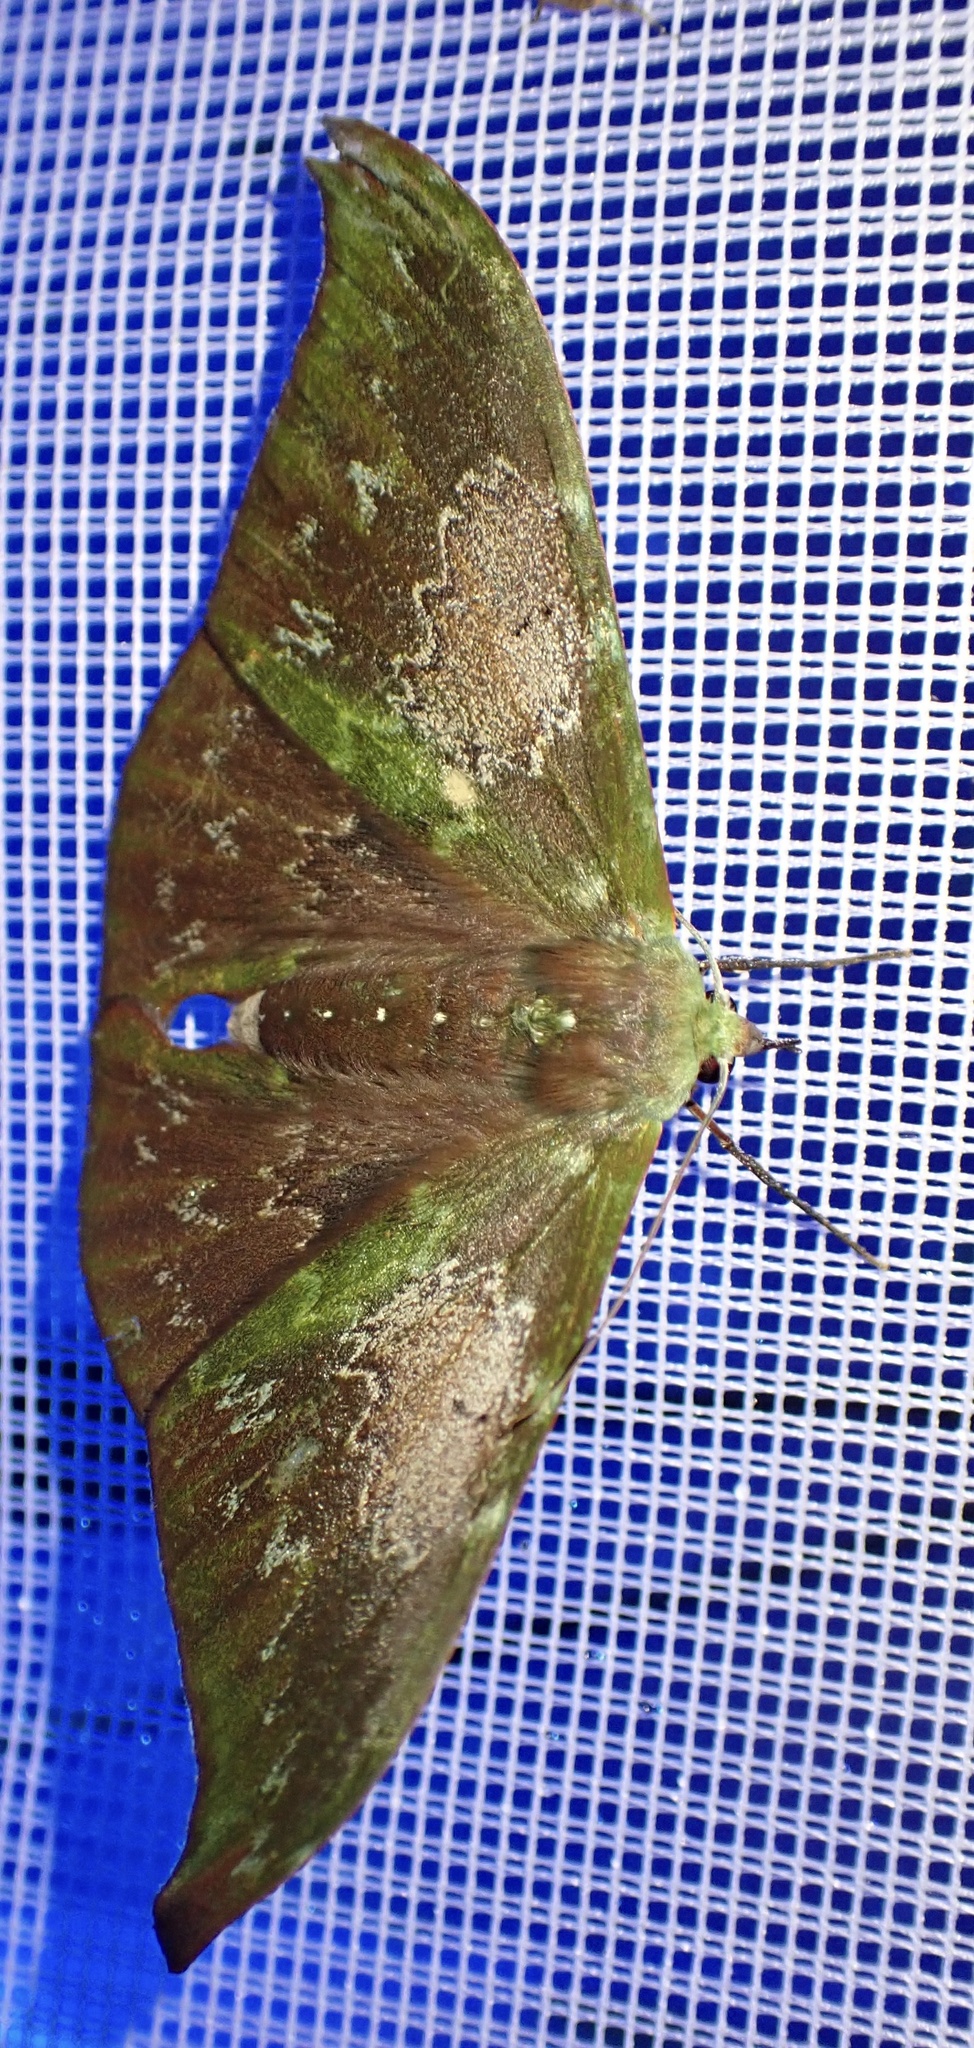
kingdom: Animalia
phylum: Arthropoda
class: Insecta
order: Lepidoptera
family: Geometridae
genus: Tanaorhinus
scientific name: Tanaorhinus unipuncta
